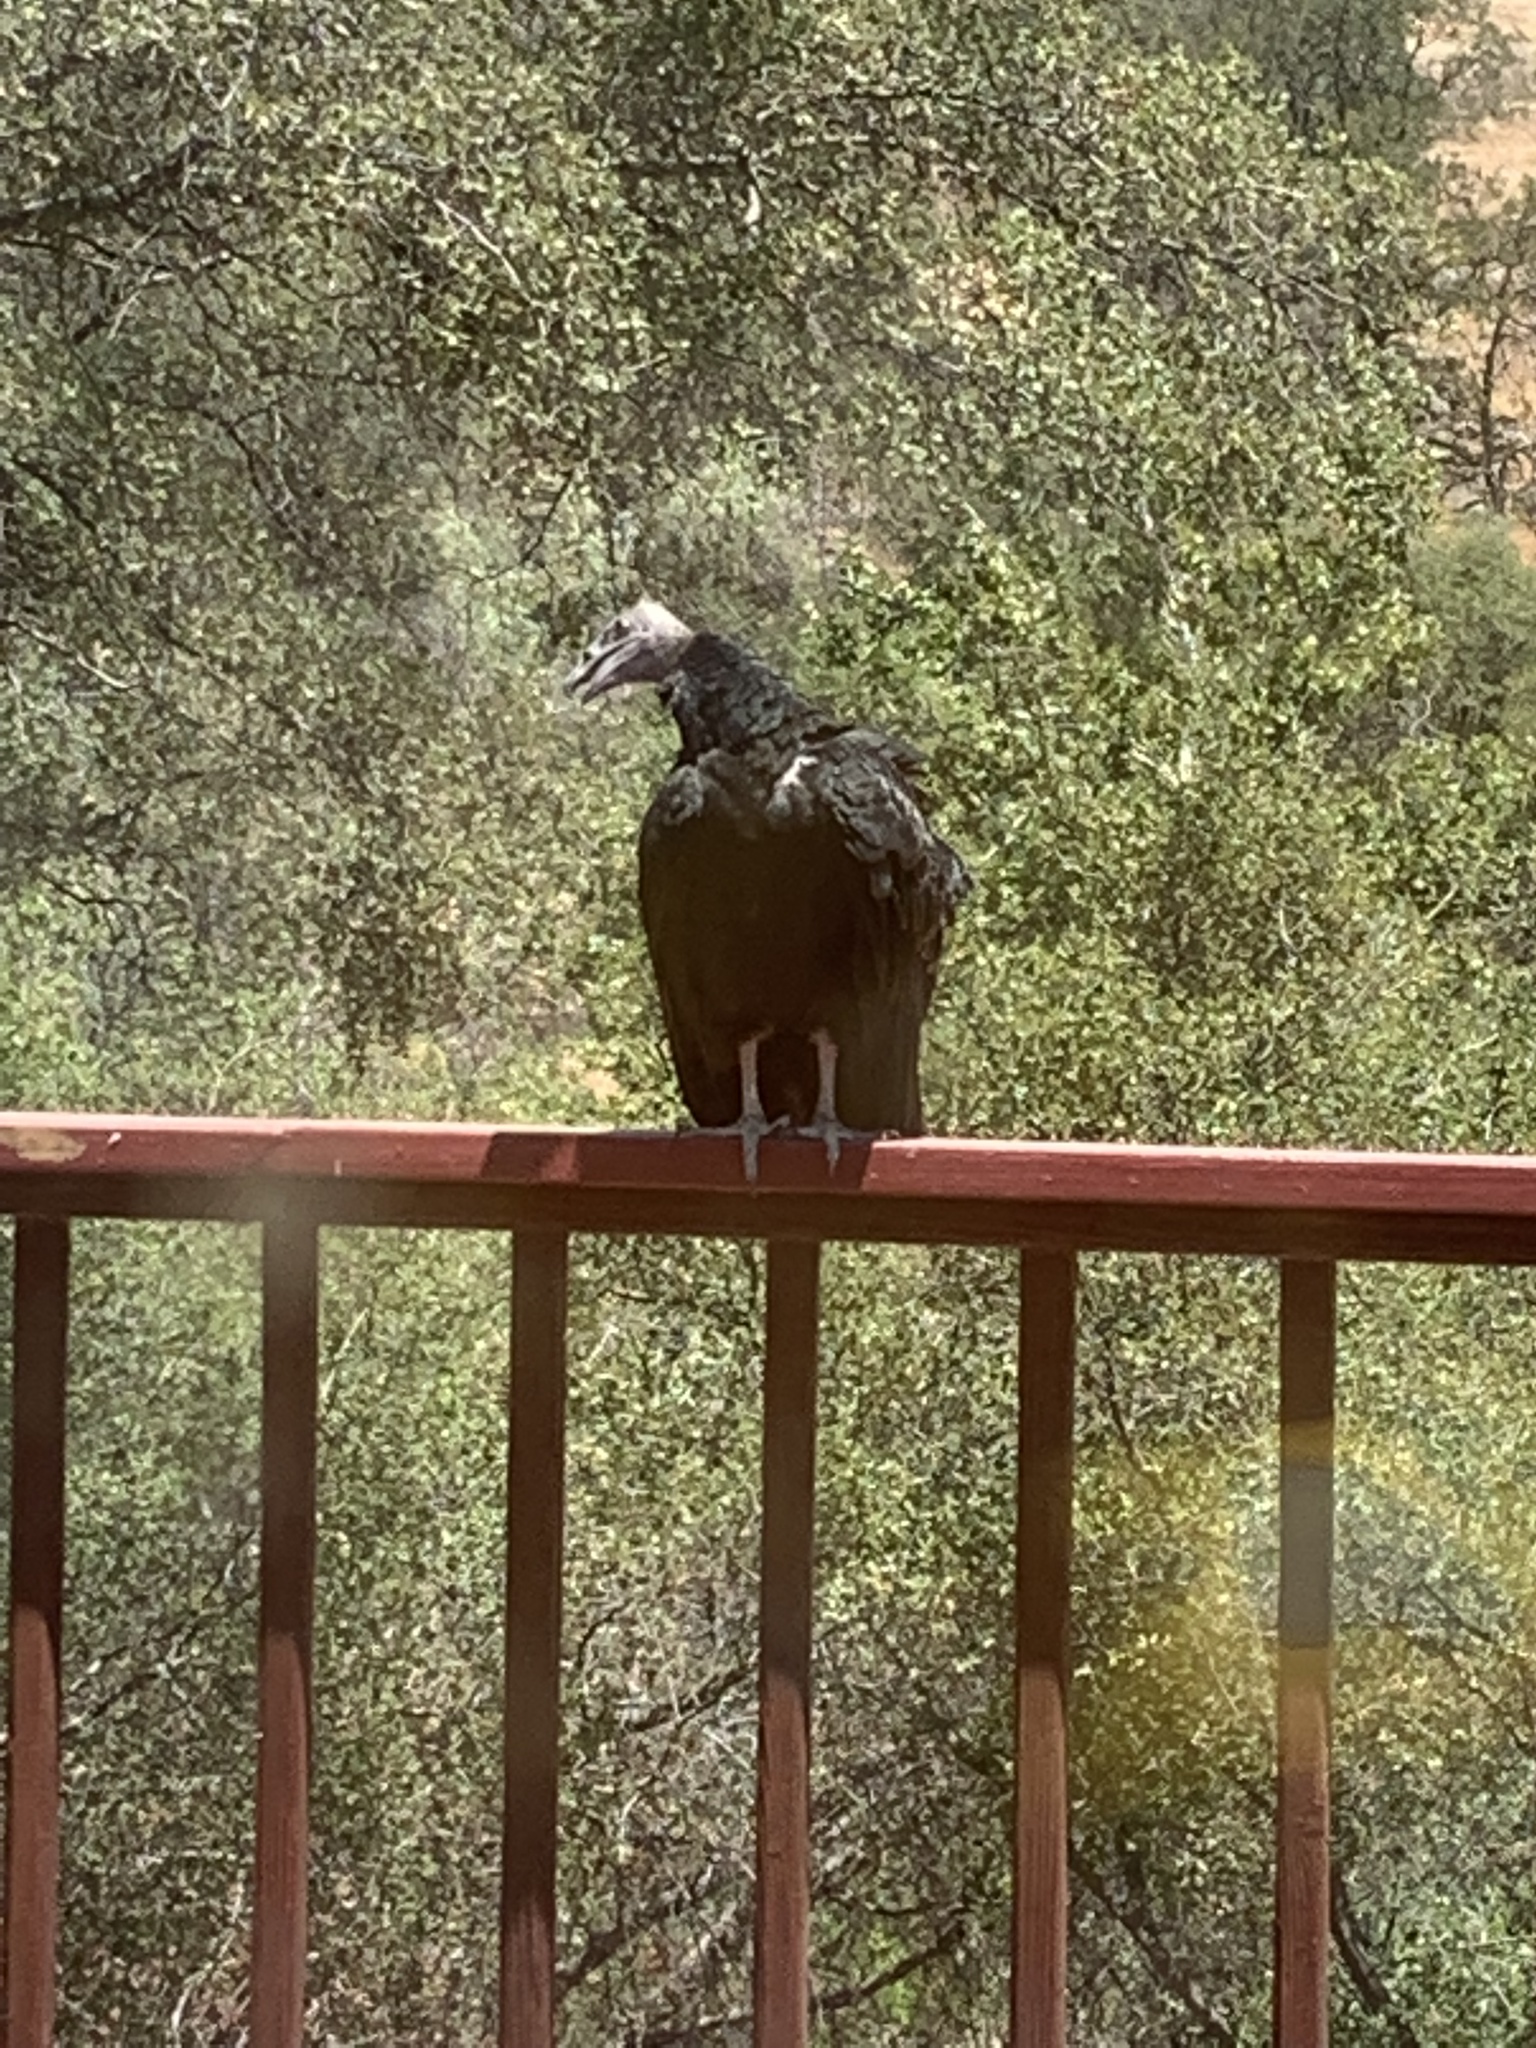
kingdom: Animalia
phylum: Chordata
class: Aves
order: Accipitriformes
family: Cathartidae
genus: Cathartes
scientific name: Cathartes aura
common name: Turkey vulture
